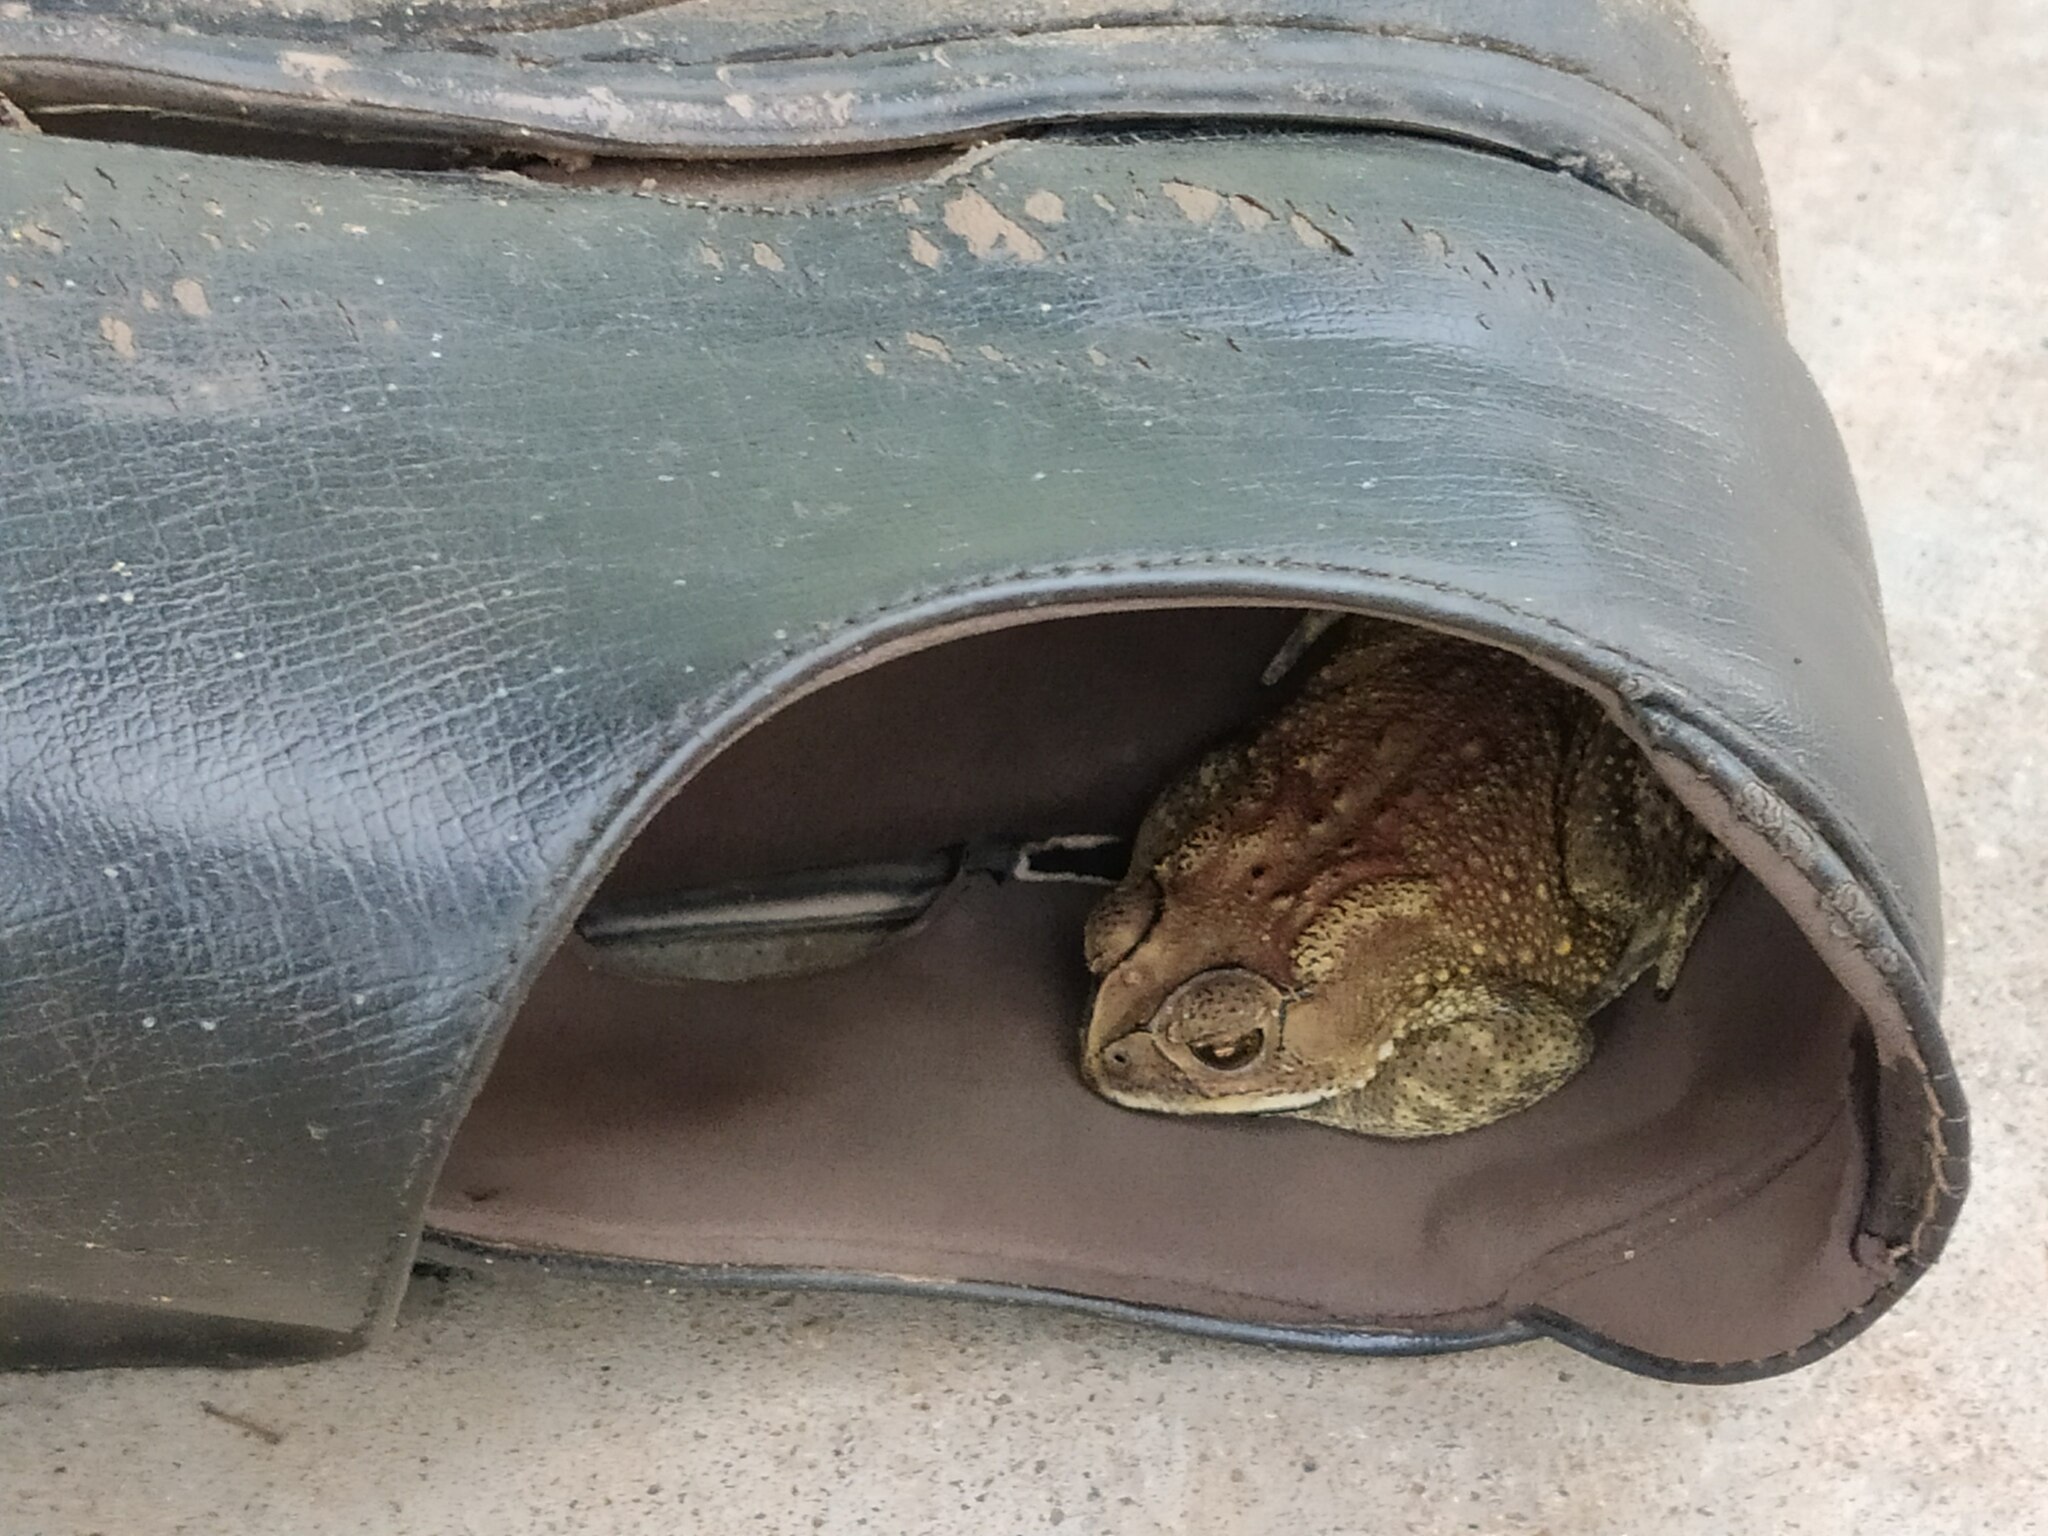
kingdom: Animalia
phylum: Chordata
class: Amphibia
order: Anura
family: Bufonidae
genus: Duttaphrynus
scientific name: Duttaphrynus melanostictus
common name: Common sunda toad
